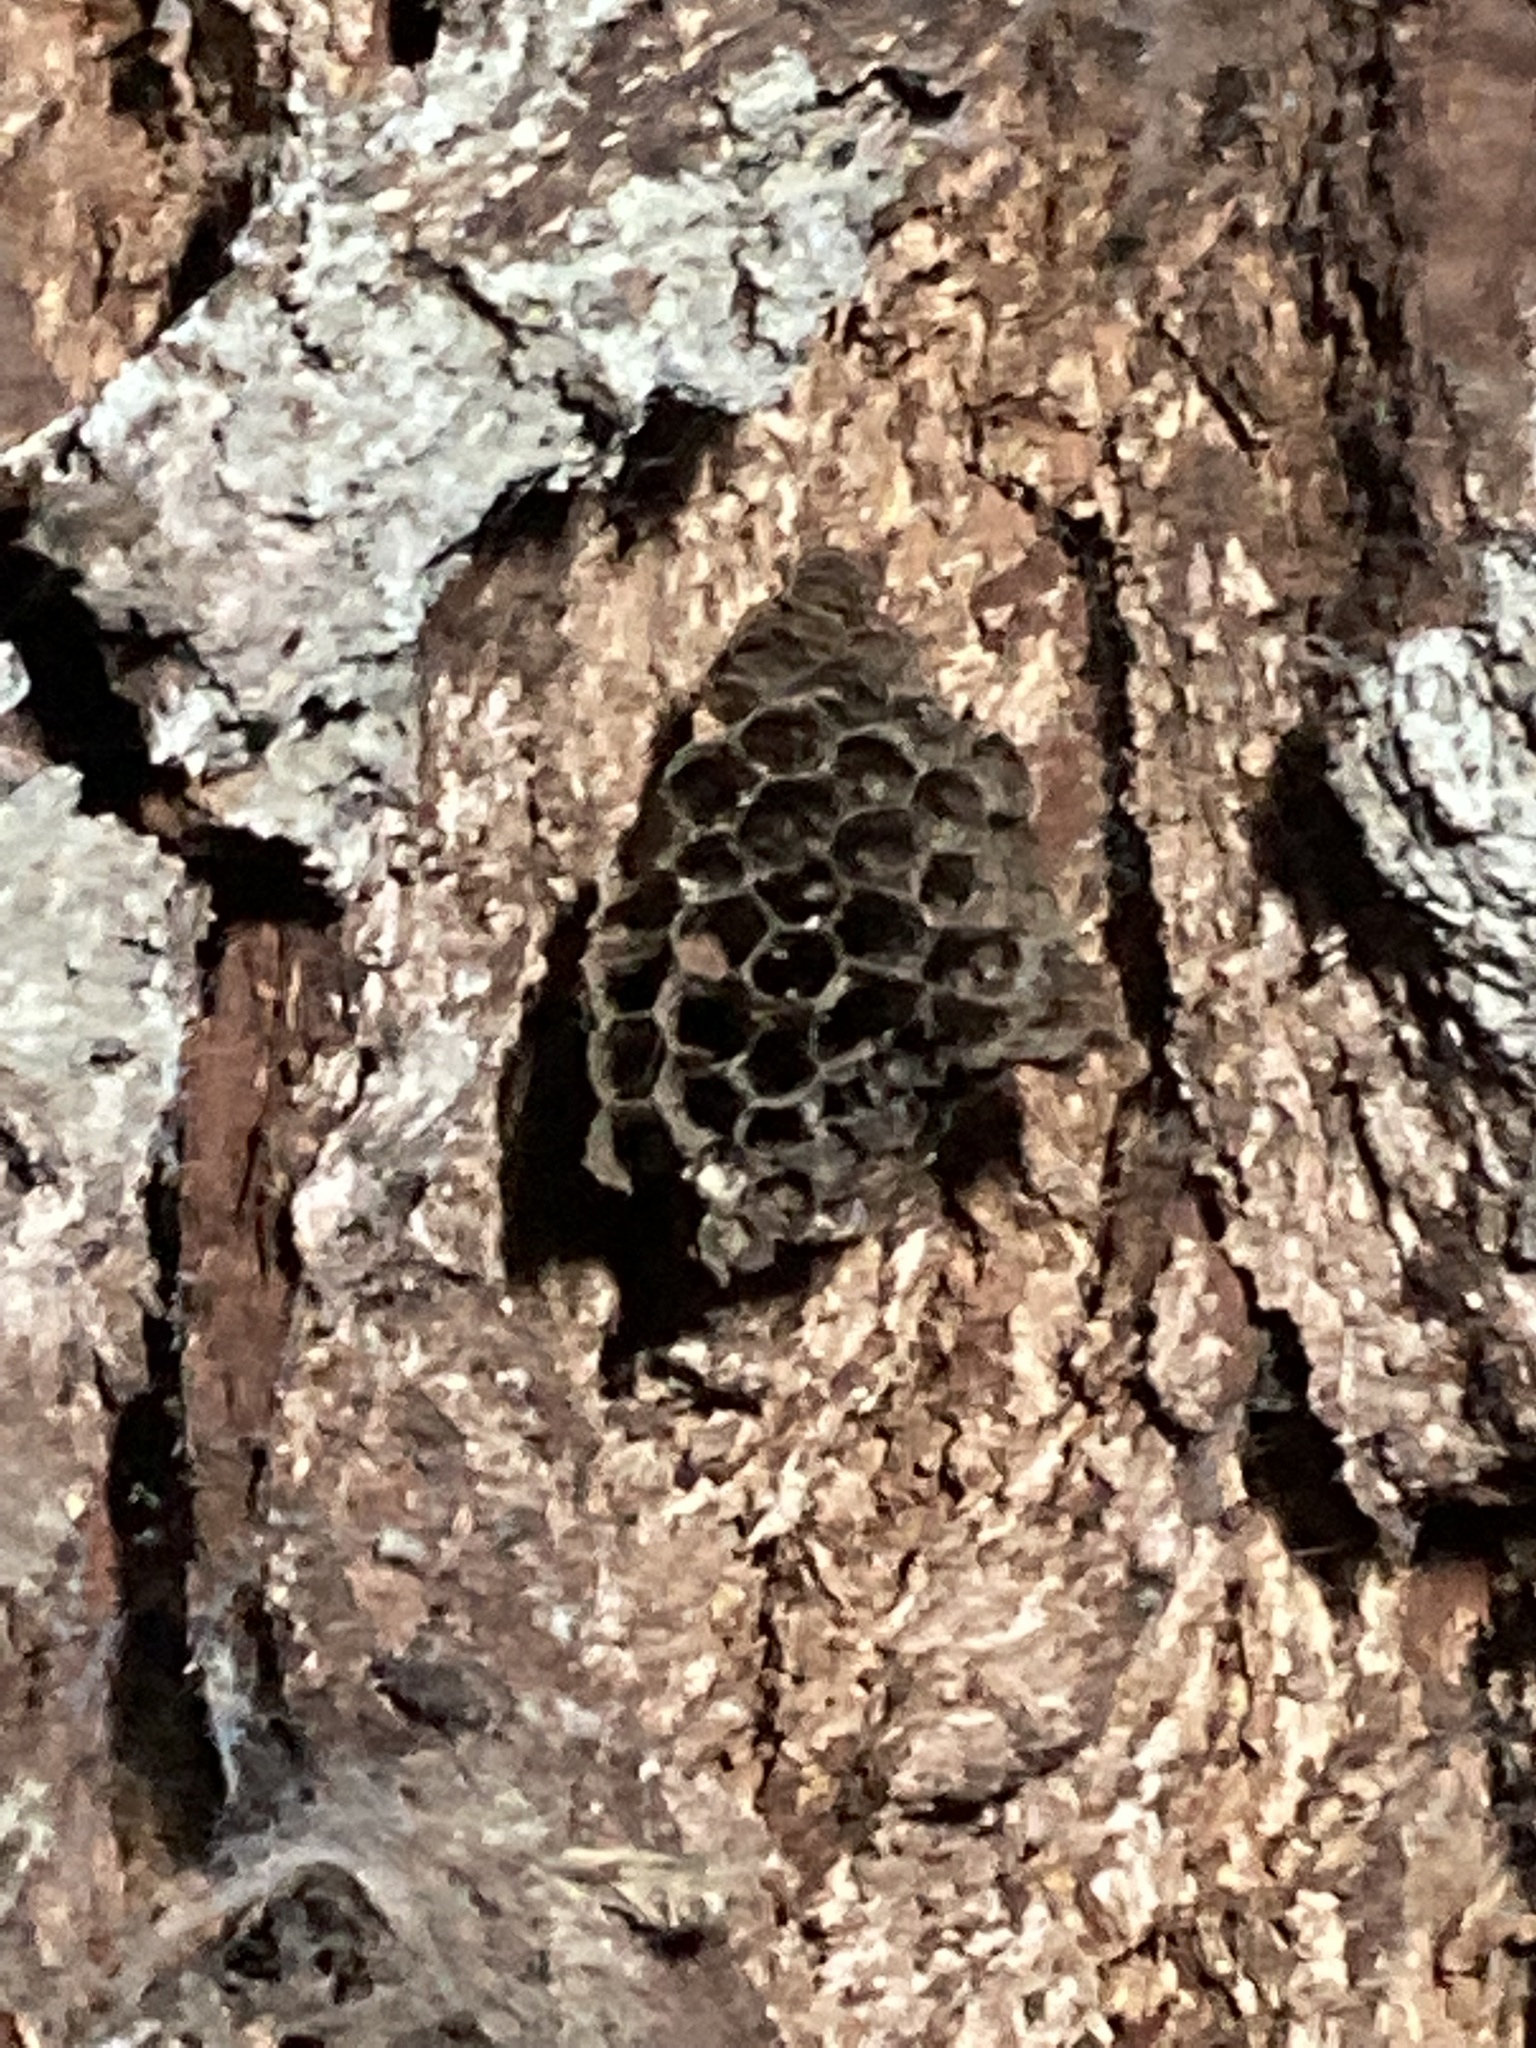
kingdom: Animalia
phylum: Arthropoda
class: Insecta
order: Hymenoptera
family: Vespidae
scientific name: Vespidae
